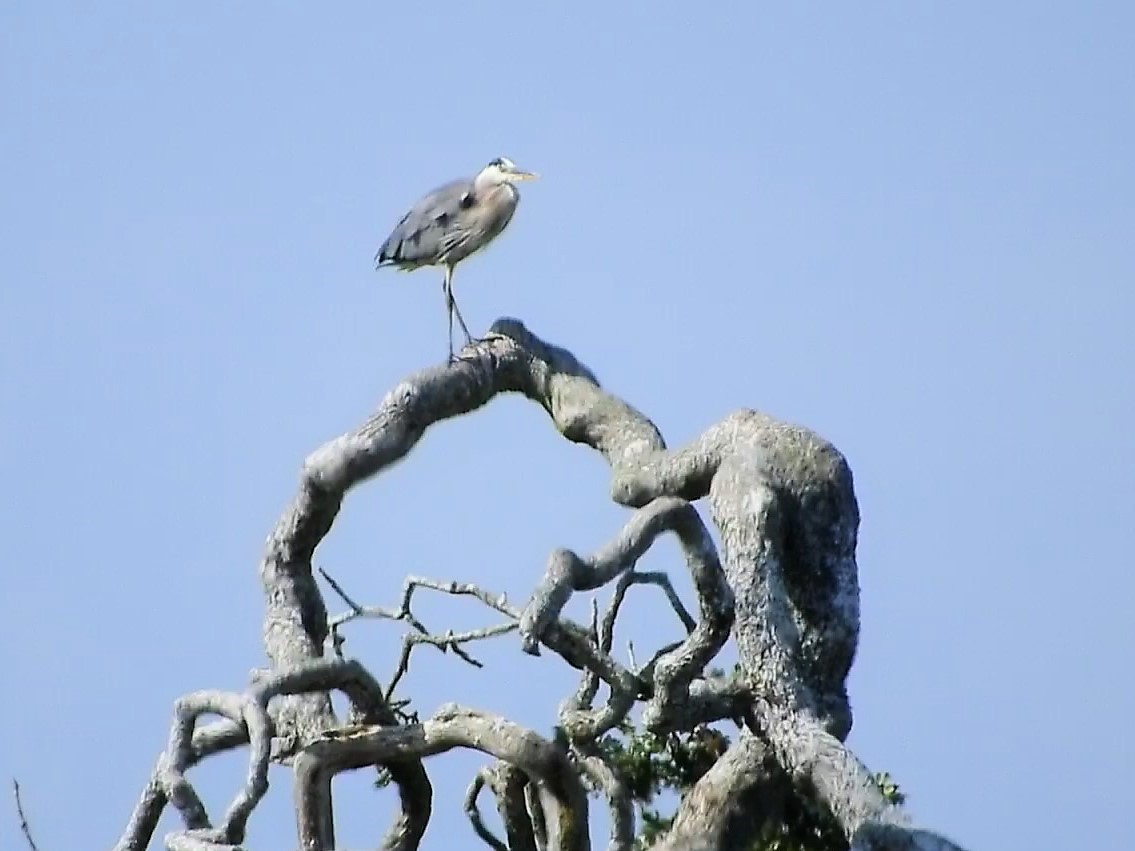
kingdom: Animalia
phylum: Chordata
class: Aves
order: Pelecaniformes
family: Ardeidae
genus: Ardea
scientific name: Ardea herodias
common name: Great blue heron
